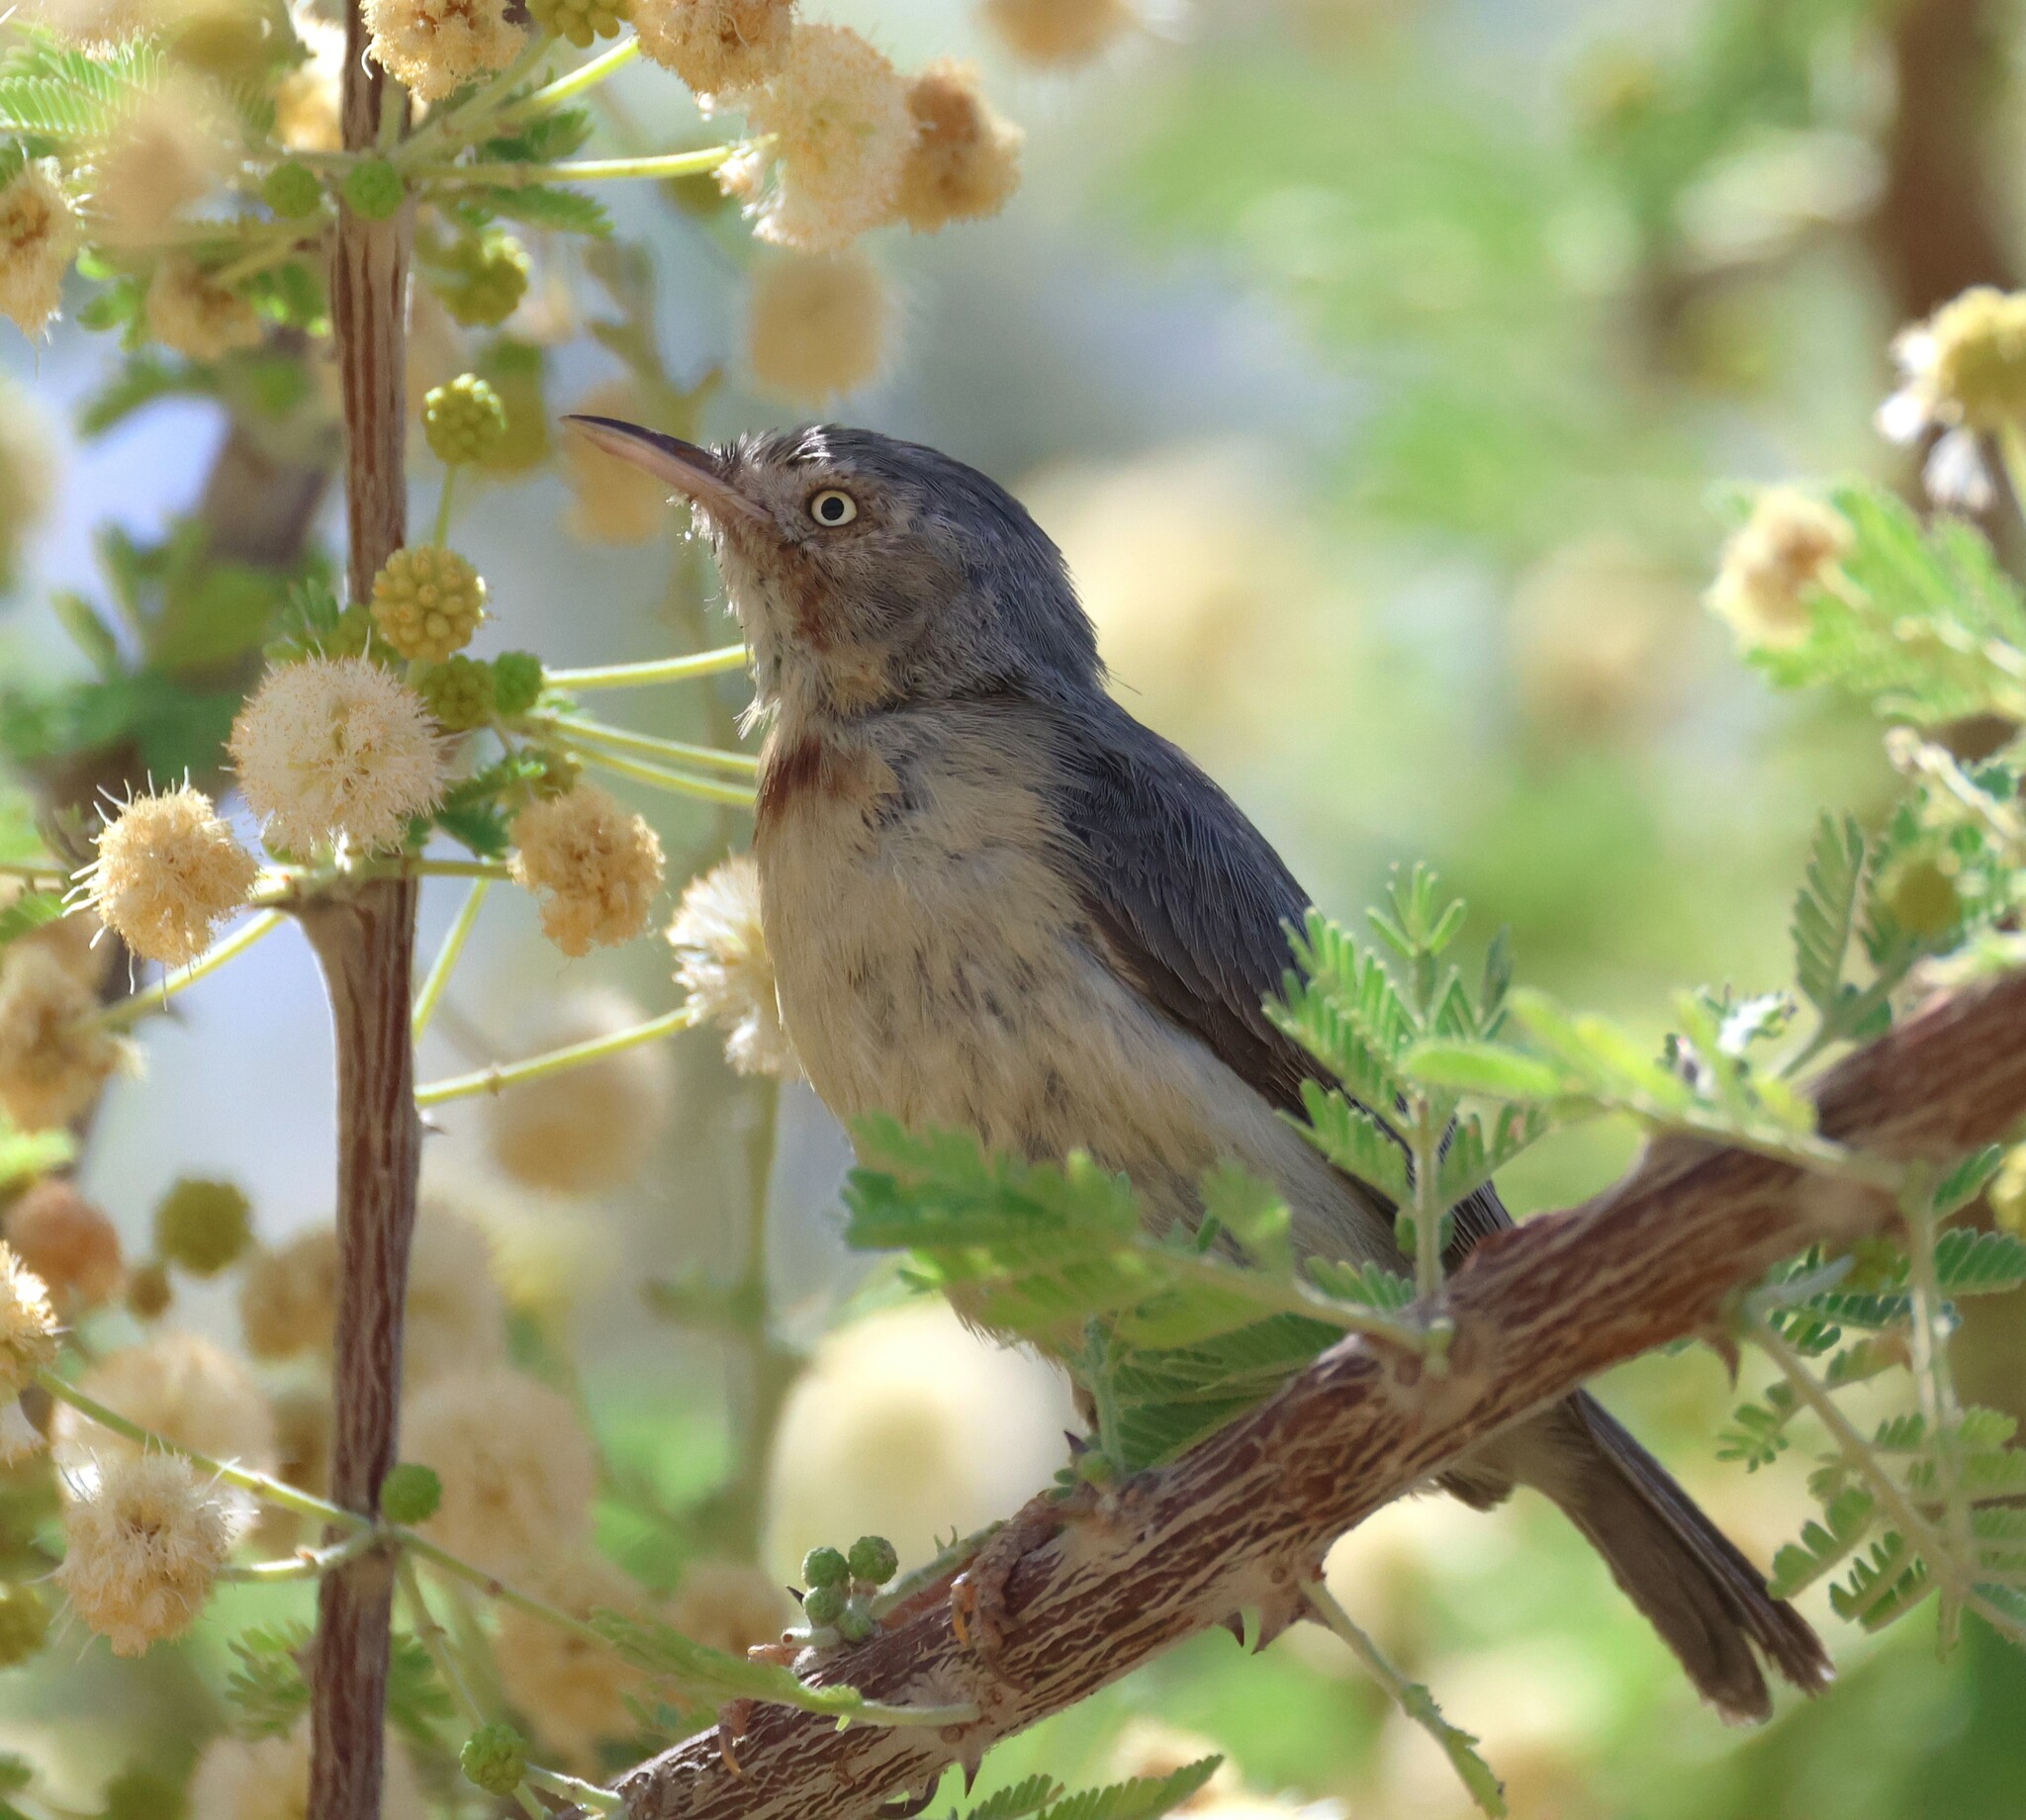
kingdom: Animalia
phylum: Chordata
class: Aves
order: Passeriformes
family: Cisticolidae
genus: Eremomela
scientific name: Eremomela usticollis
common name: Burnt-neck eremomela
